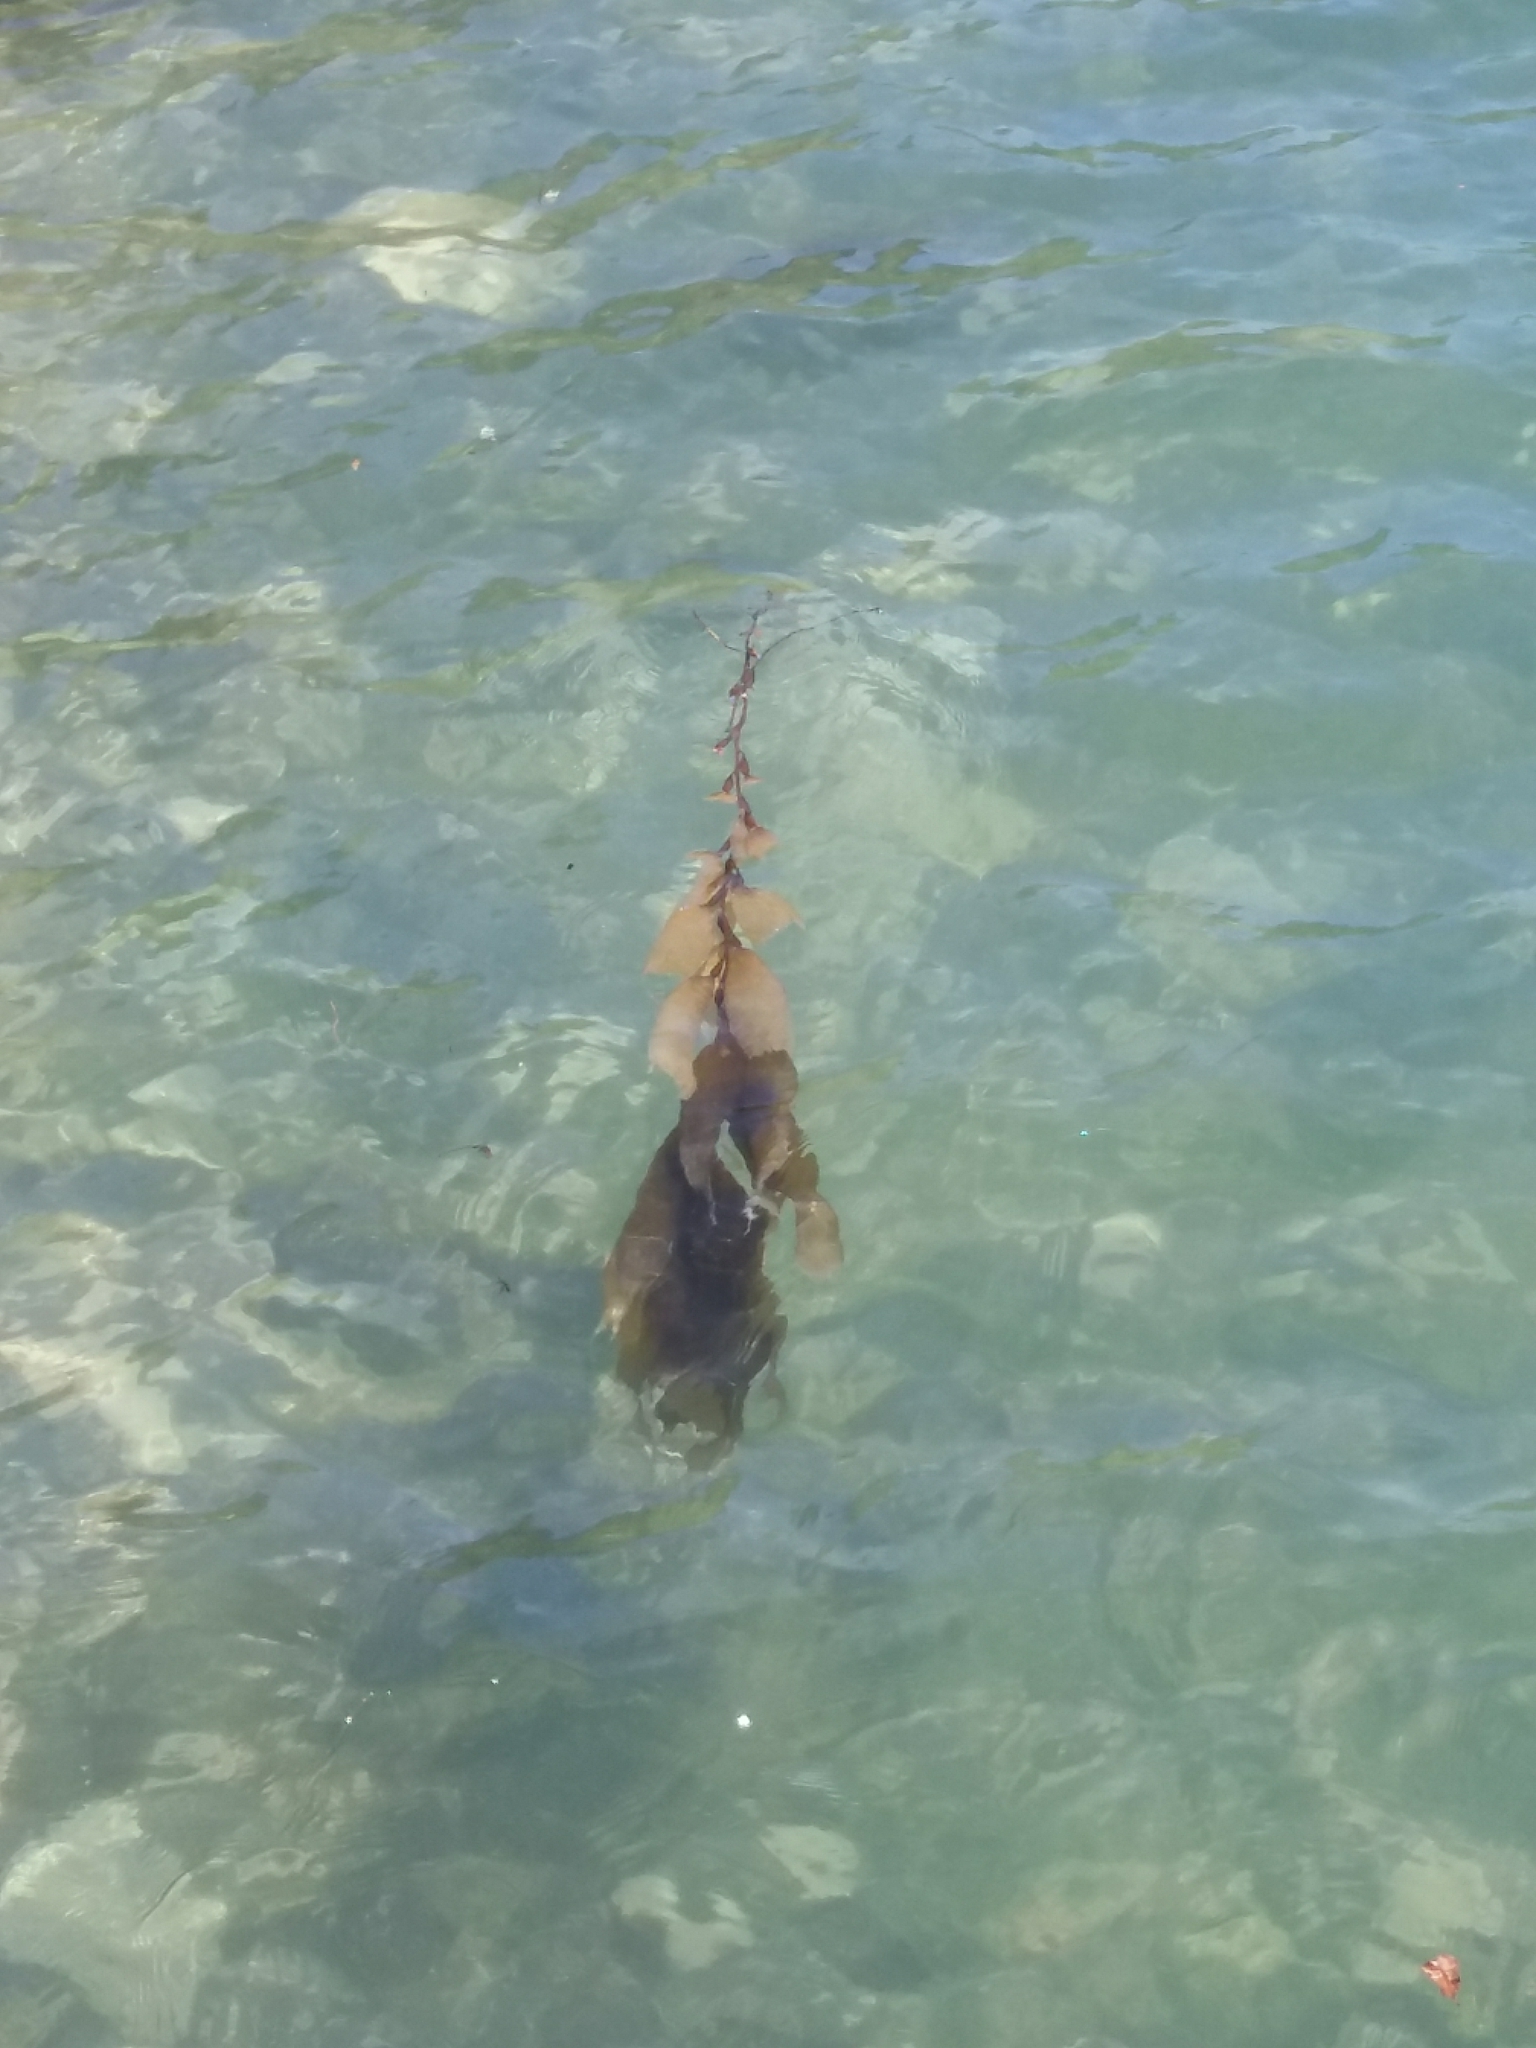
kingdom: Chromista
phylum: Ochrophyta
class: Phaeophyceae
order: Laminariales
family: Laminariaceae
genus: Macrocystis
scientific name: Macrocystis pyrifera
